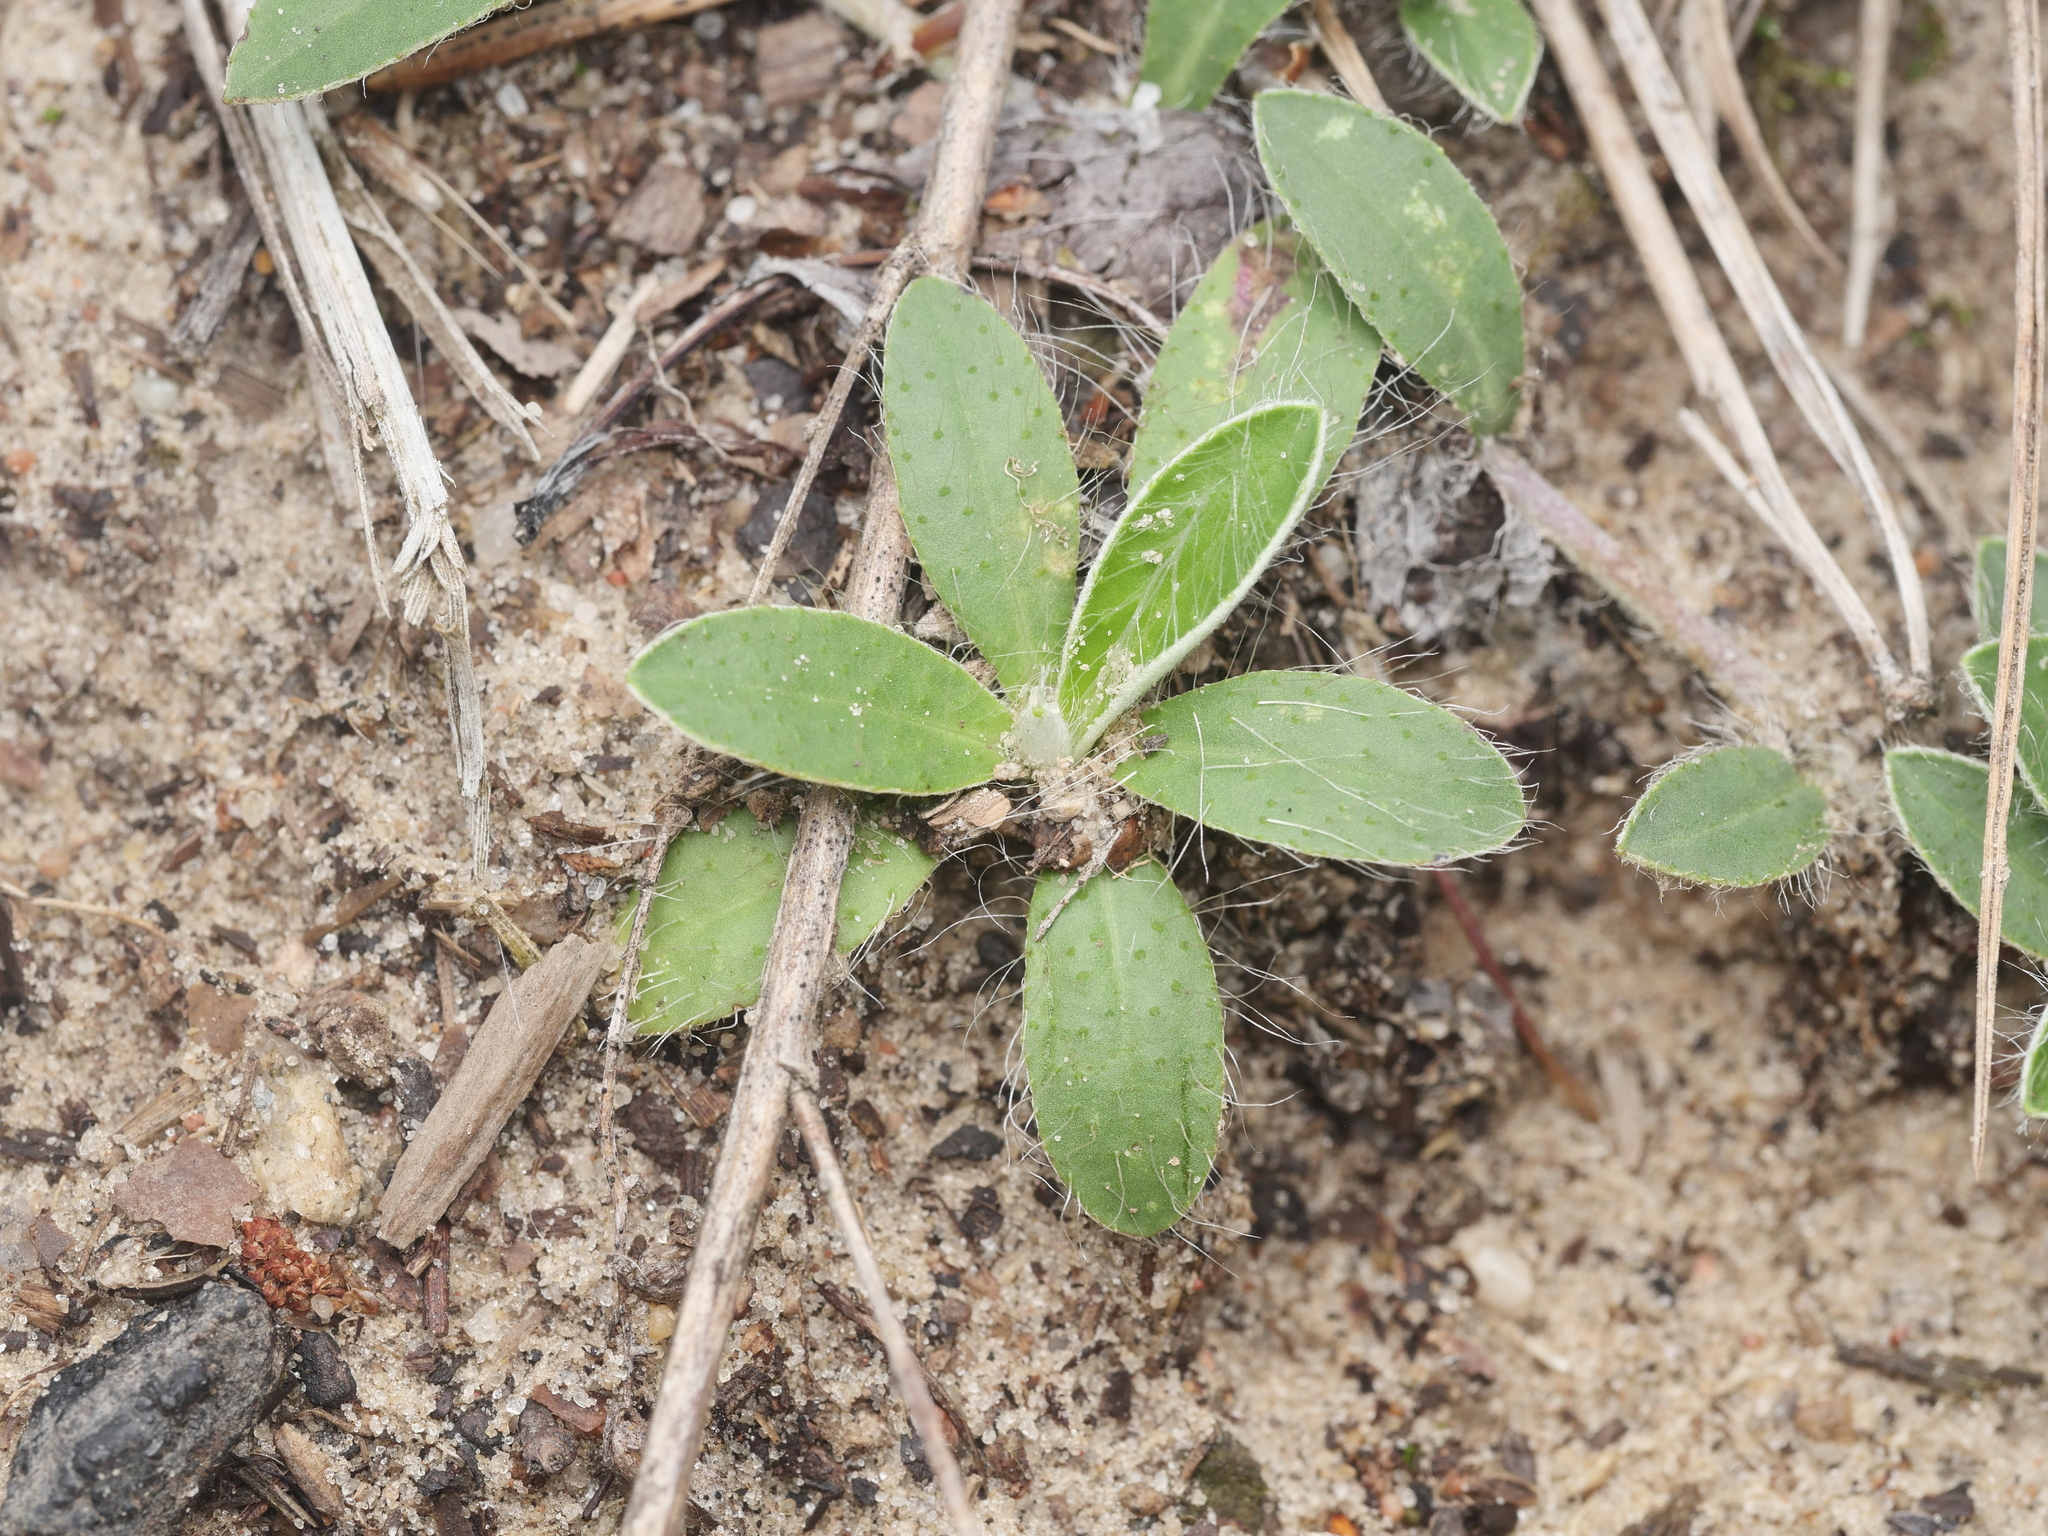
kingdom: Plantae
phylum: Tracheophyta
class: Magnoliopsida
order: Asterales
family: Asteraceae
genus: Pilosella
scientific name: Pilosella officinarum
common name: Mouse-ear hawkweed
